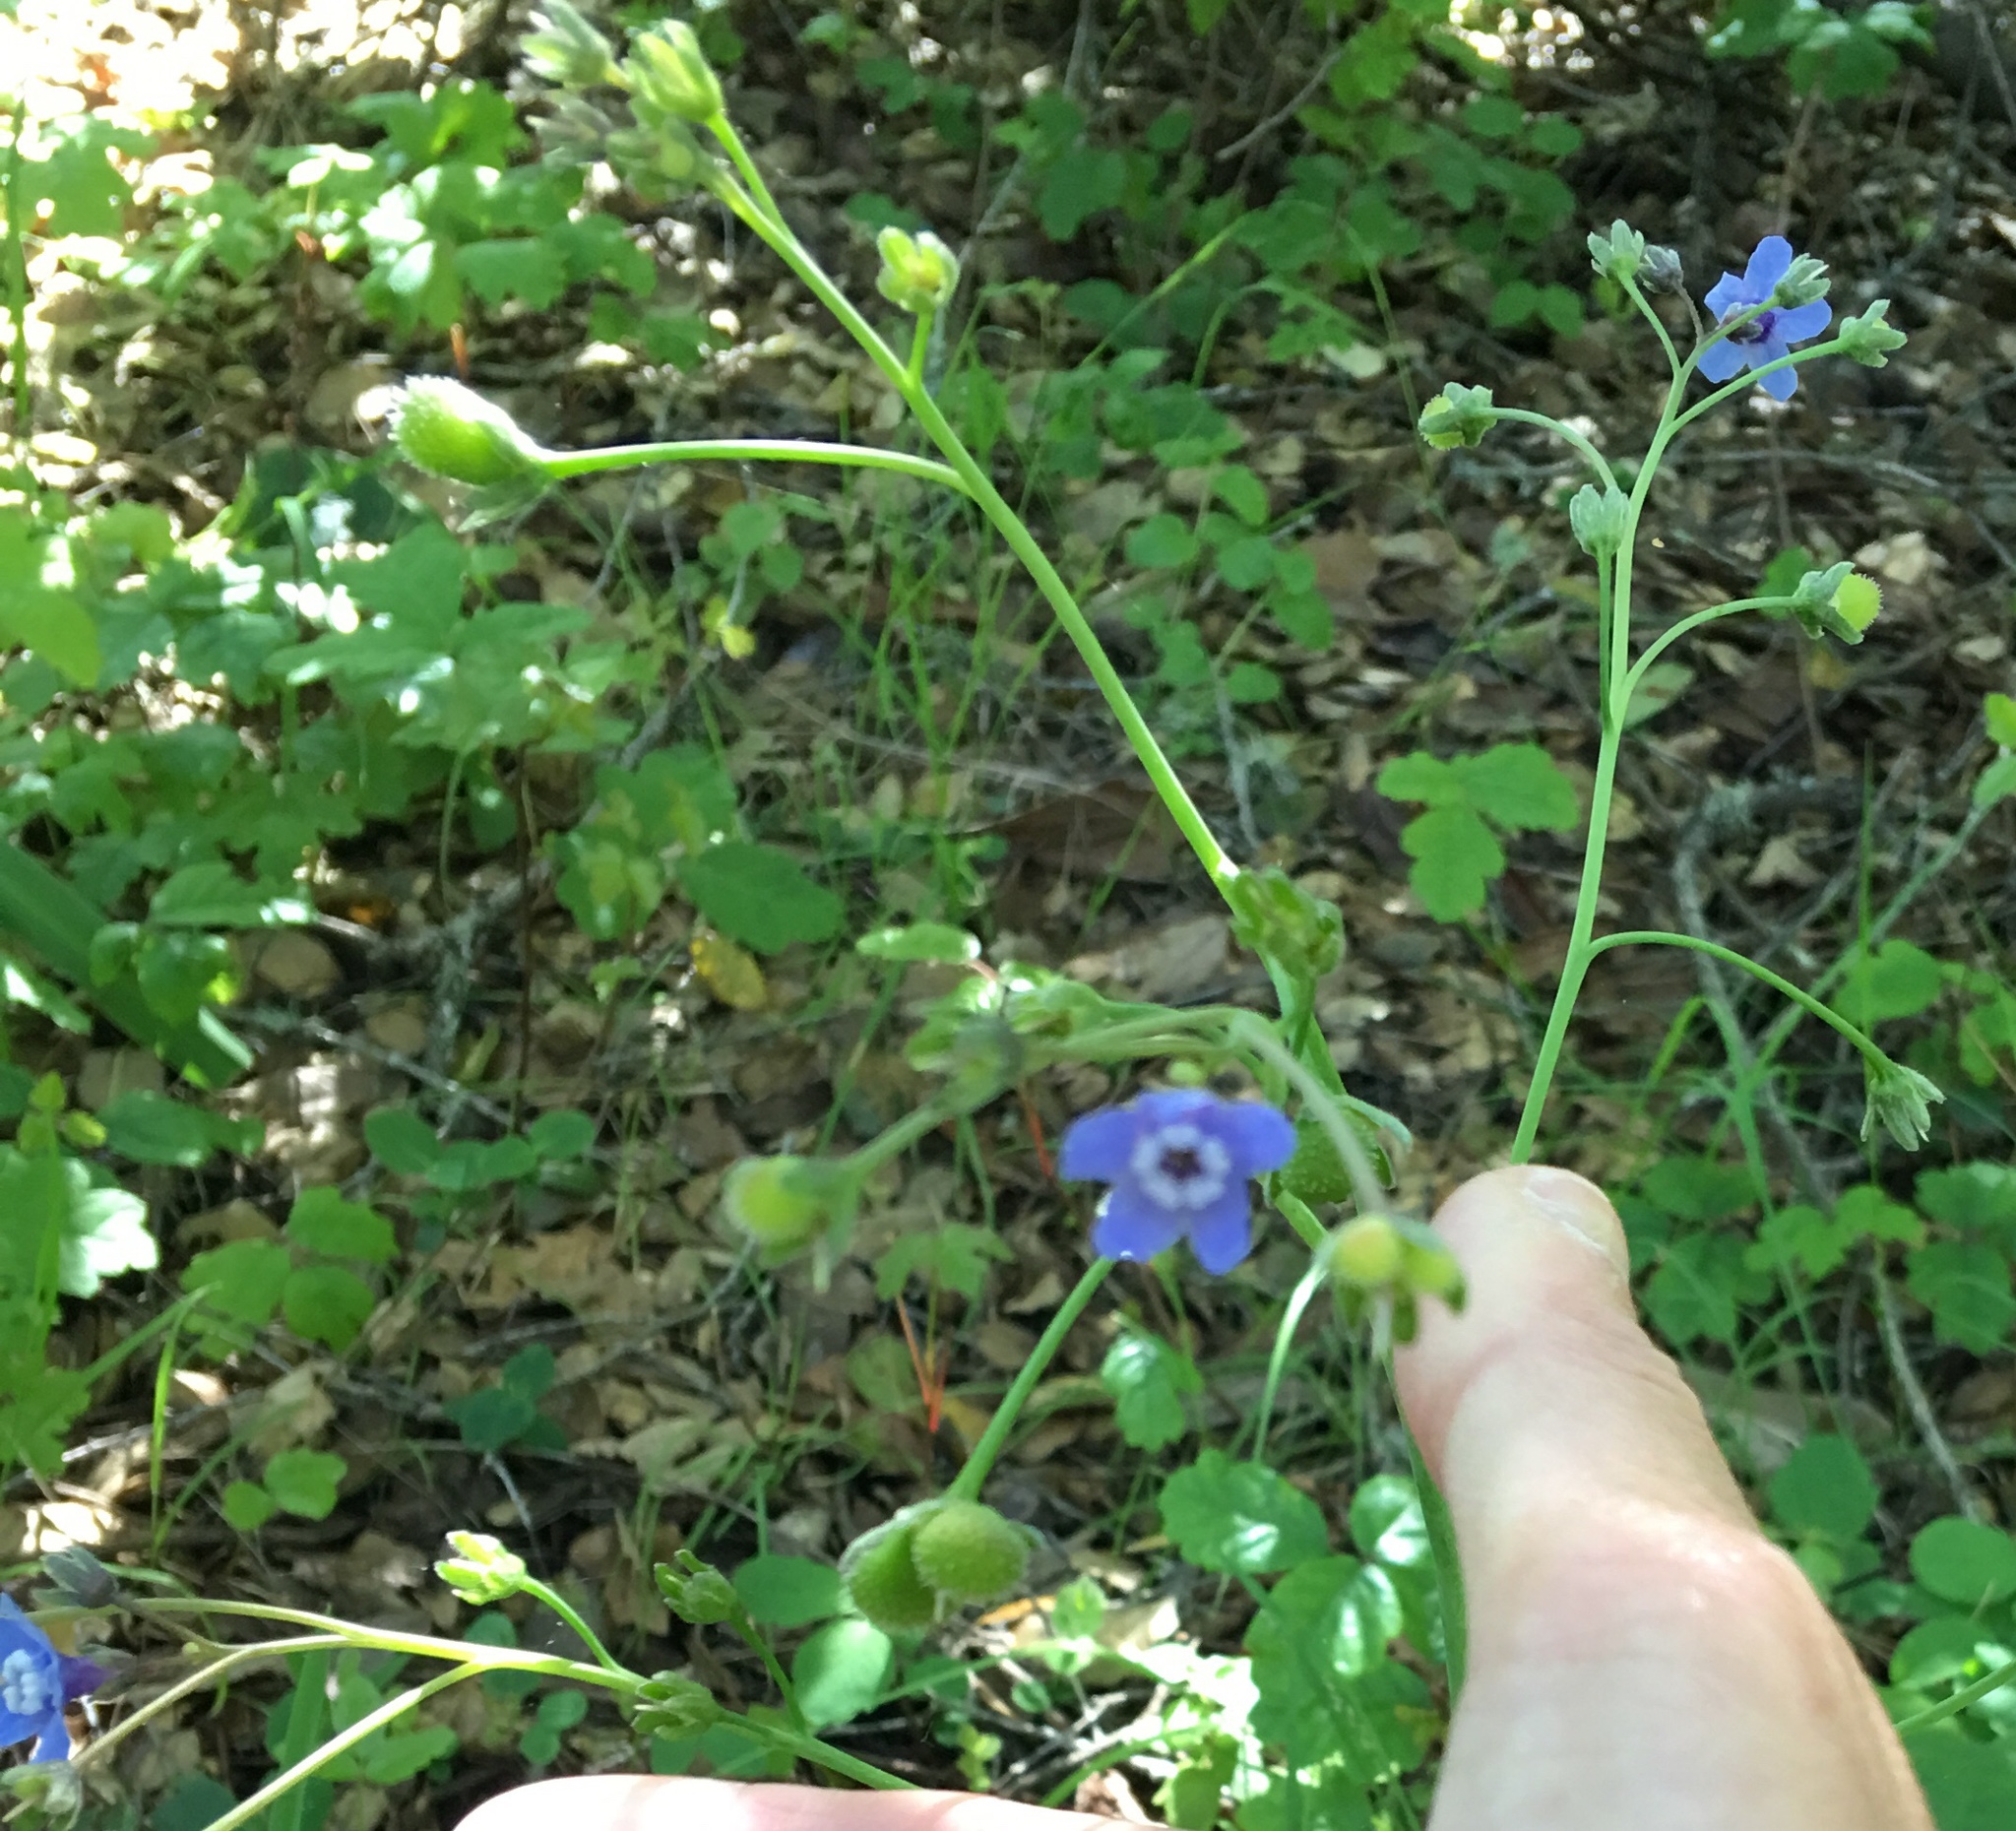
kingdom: Plantae
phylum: Tracheophyta
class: Magnoliopsida
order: Boraginales
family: Boraginaceae
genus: Adelinia
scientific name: Adelinia grande
